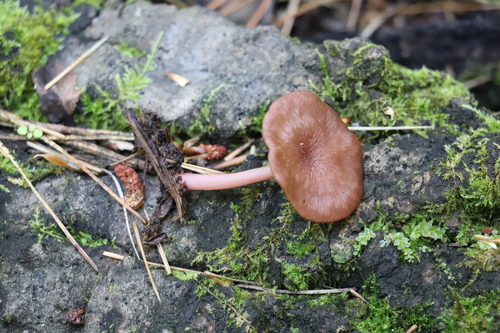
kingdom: Fungi
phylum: Basidiomycota
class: Agaricomycetes
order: Agaricales
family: Hygrophoraceae
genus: Arrhenia
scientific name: Arrhenia discorosea
